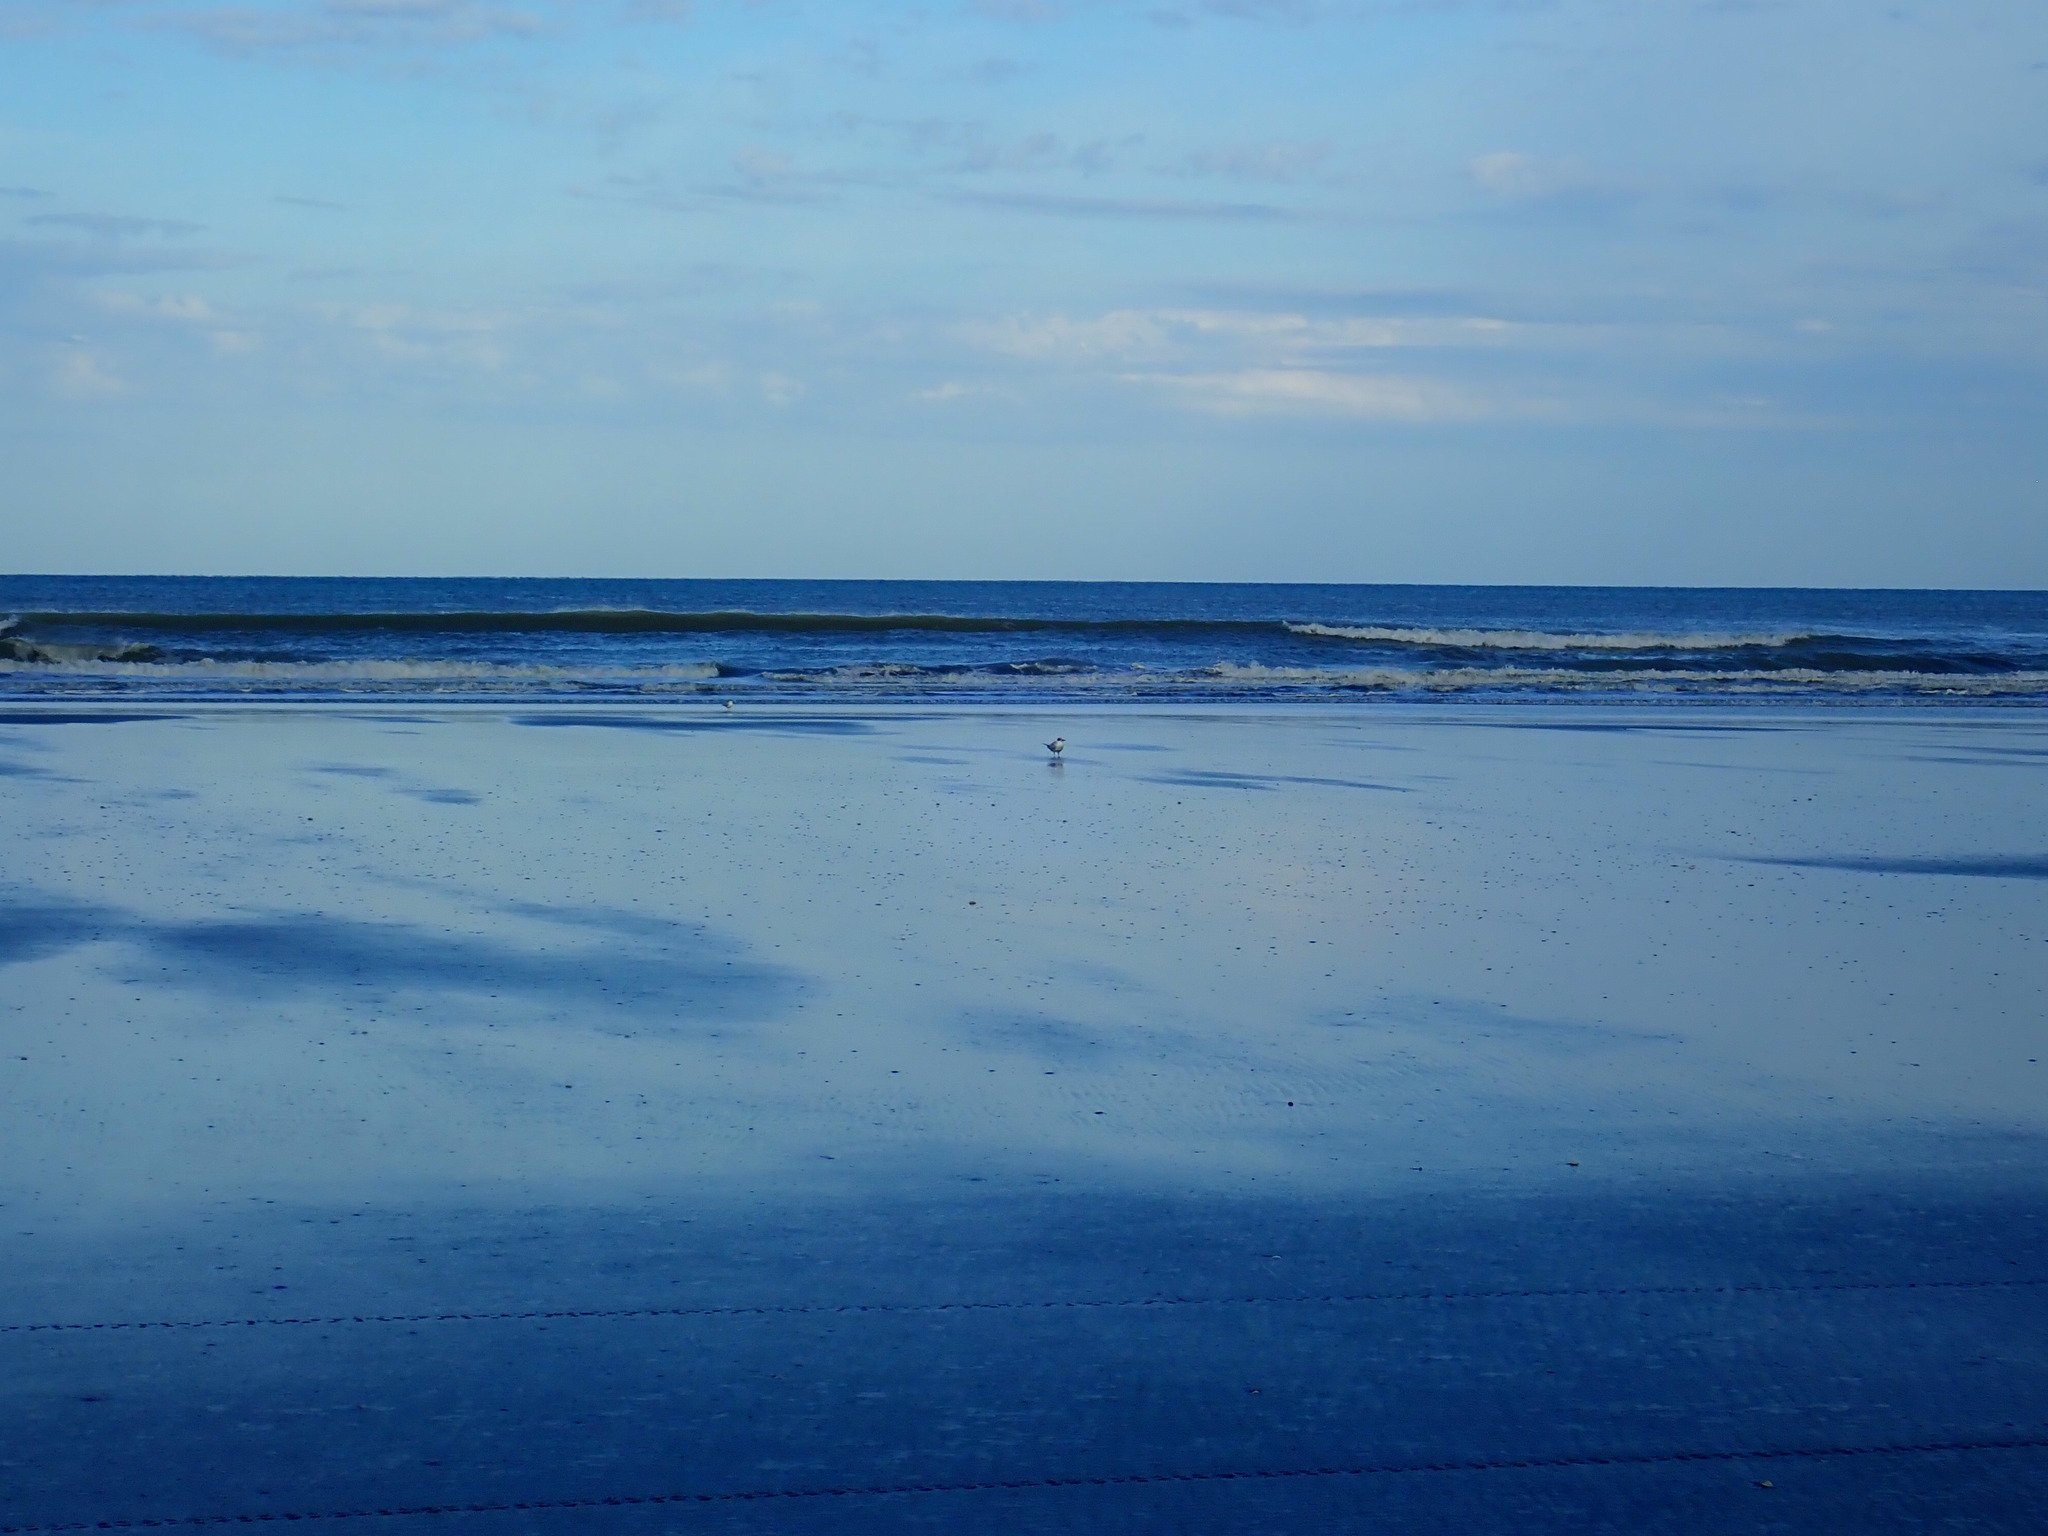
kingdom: Animalia
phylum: Chordata
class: Aves
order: Charadriiformes
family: Laridae
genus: Hydroprogne
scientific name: Hydroprogne caspia
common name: Caspian tern
